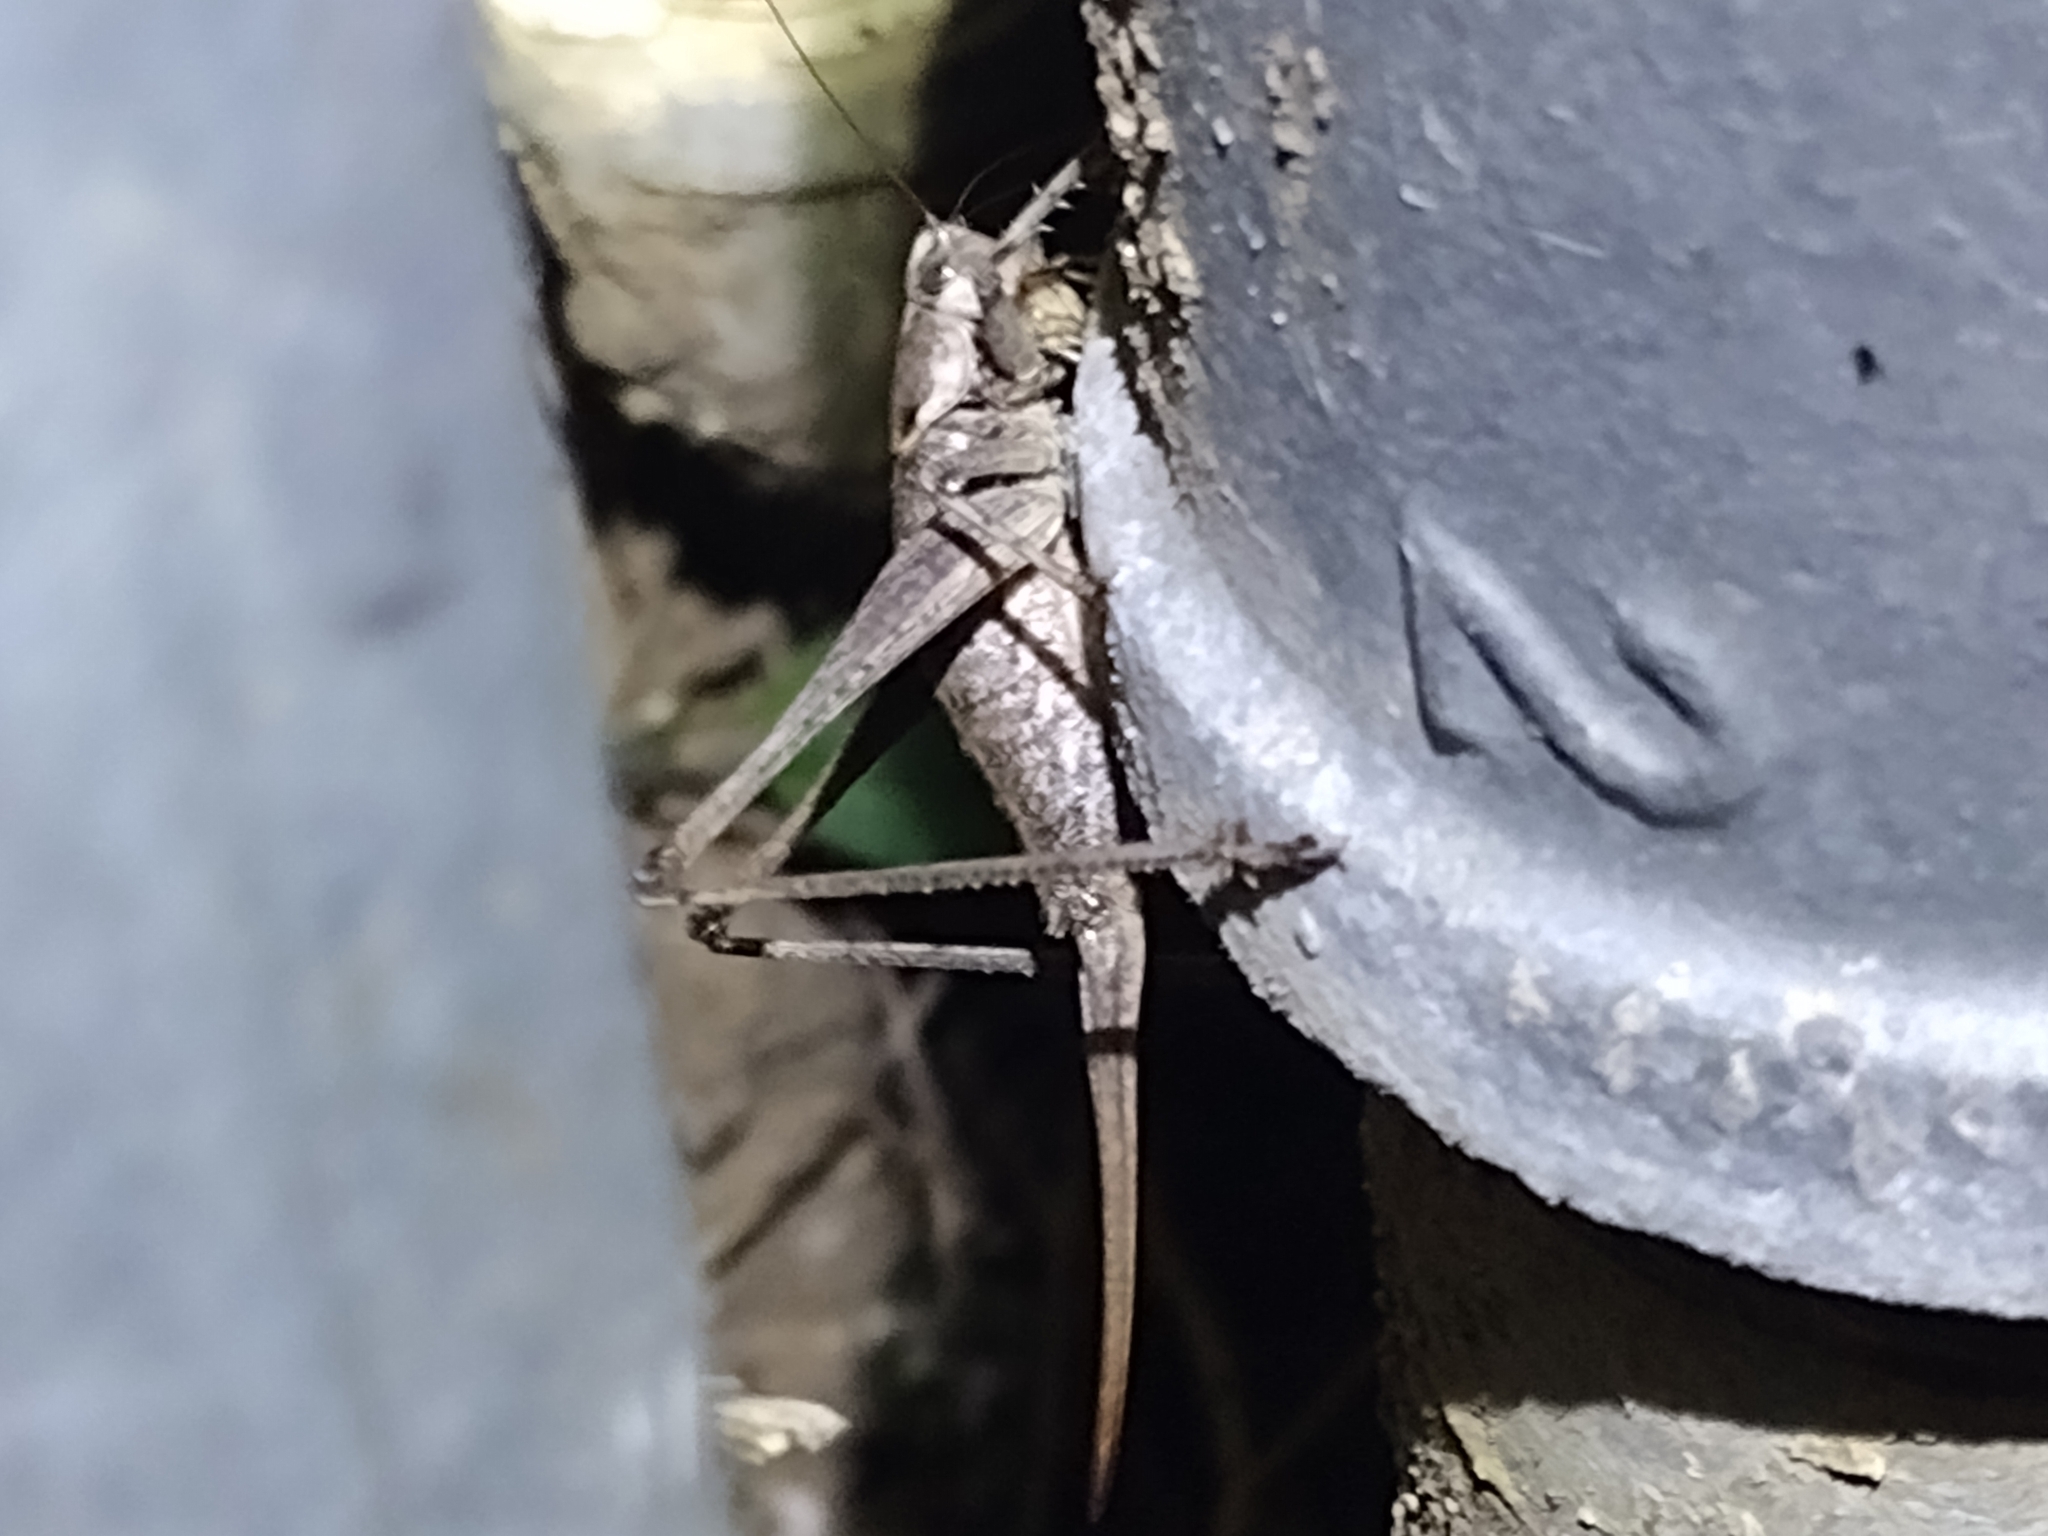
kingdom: Animalia
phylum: Arthropoda
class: Insecta
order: Orthoptera
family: Tettigoniidae
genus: Idiostatus
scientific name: Idiostatus aequalis
